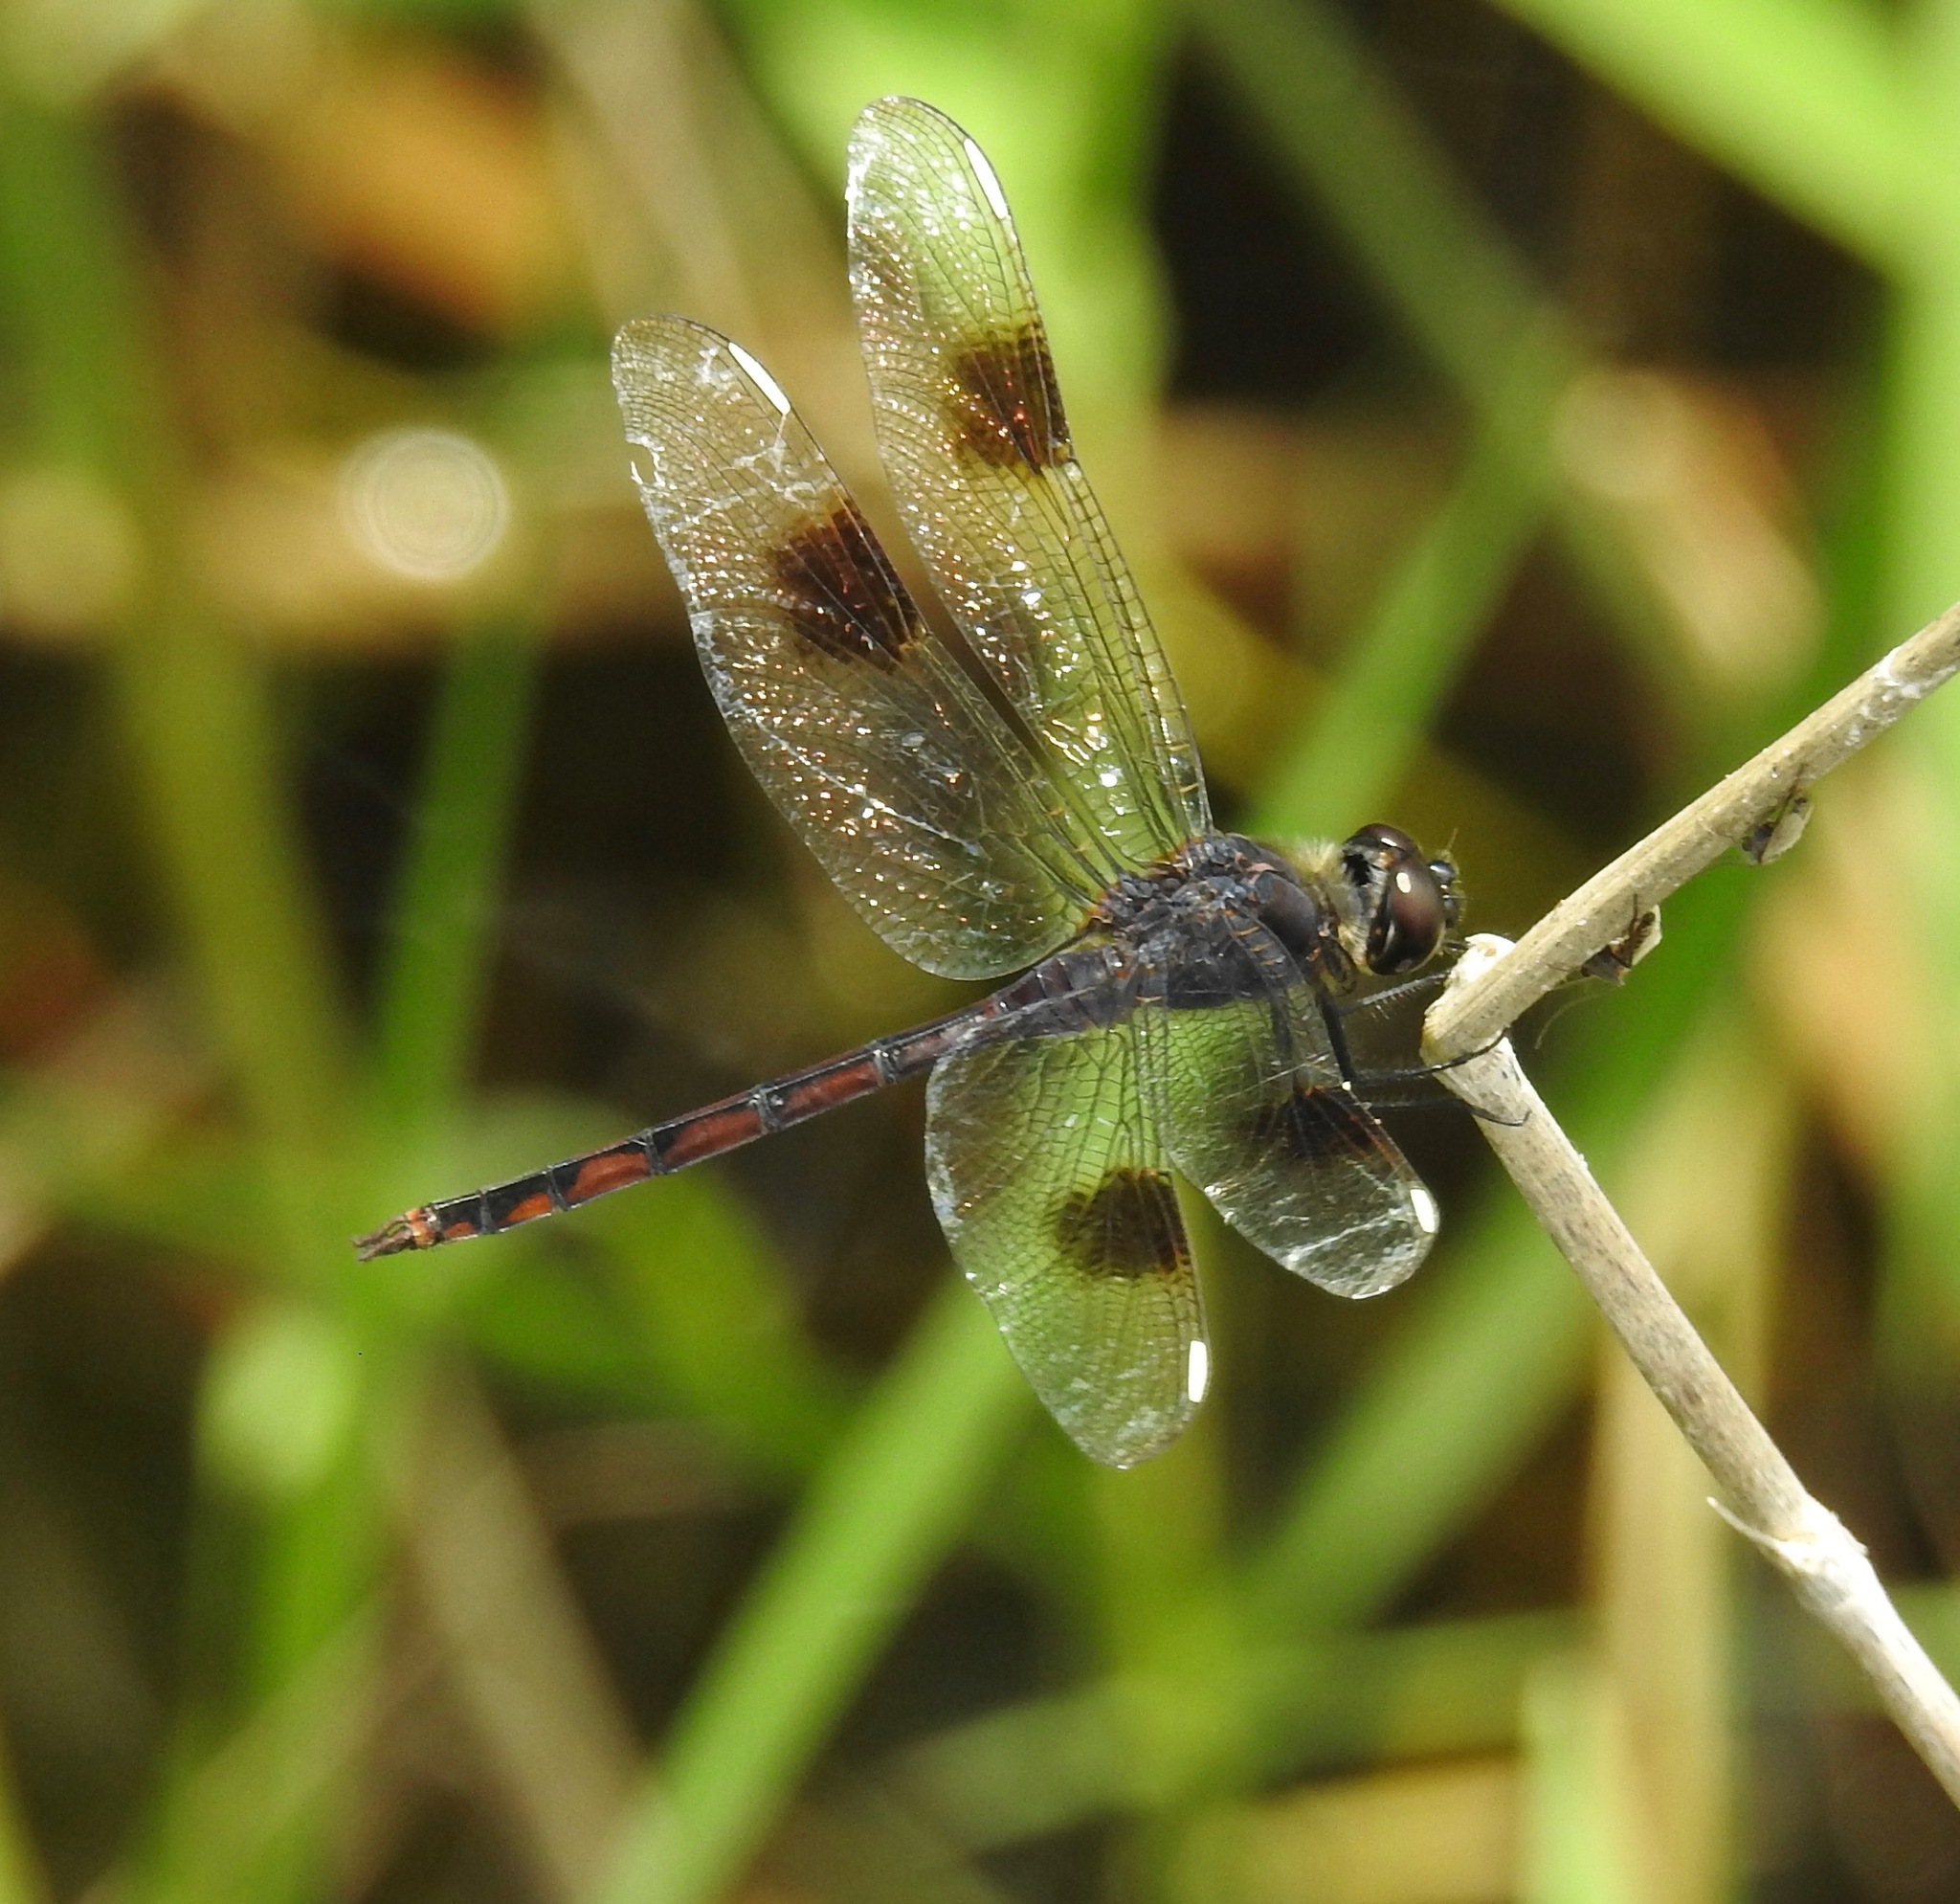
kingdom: Animalia
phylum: Arthropoda
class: Insecta
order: Odonata
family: Libellulidae
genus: Brachymesia
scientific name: Brachymesia gravida
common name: Four-spotted pennant
